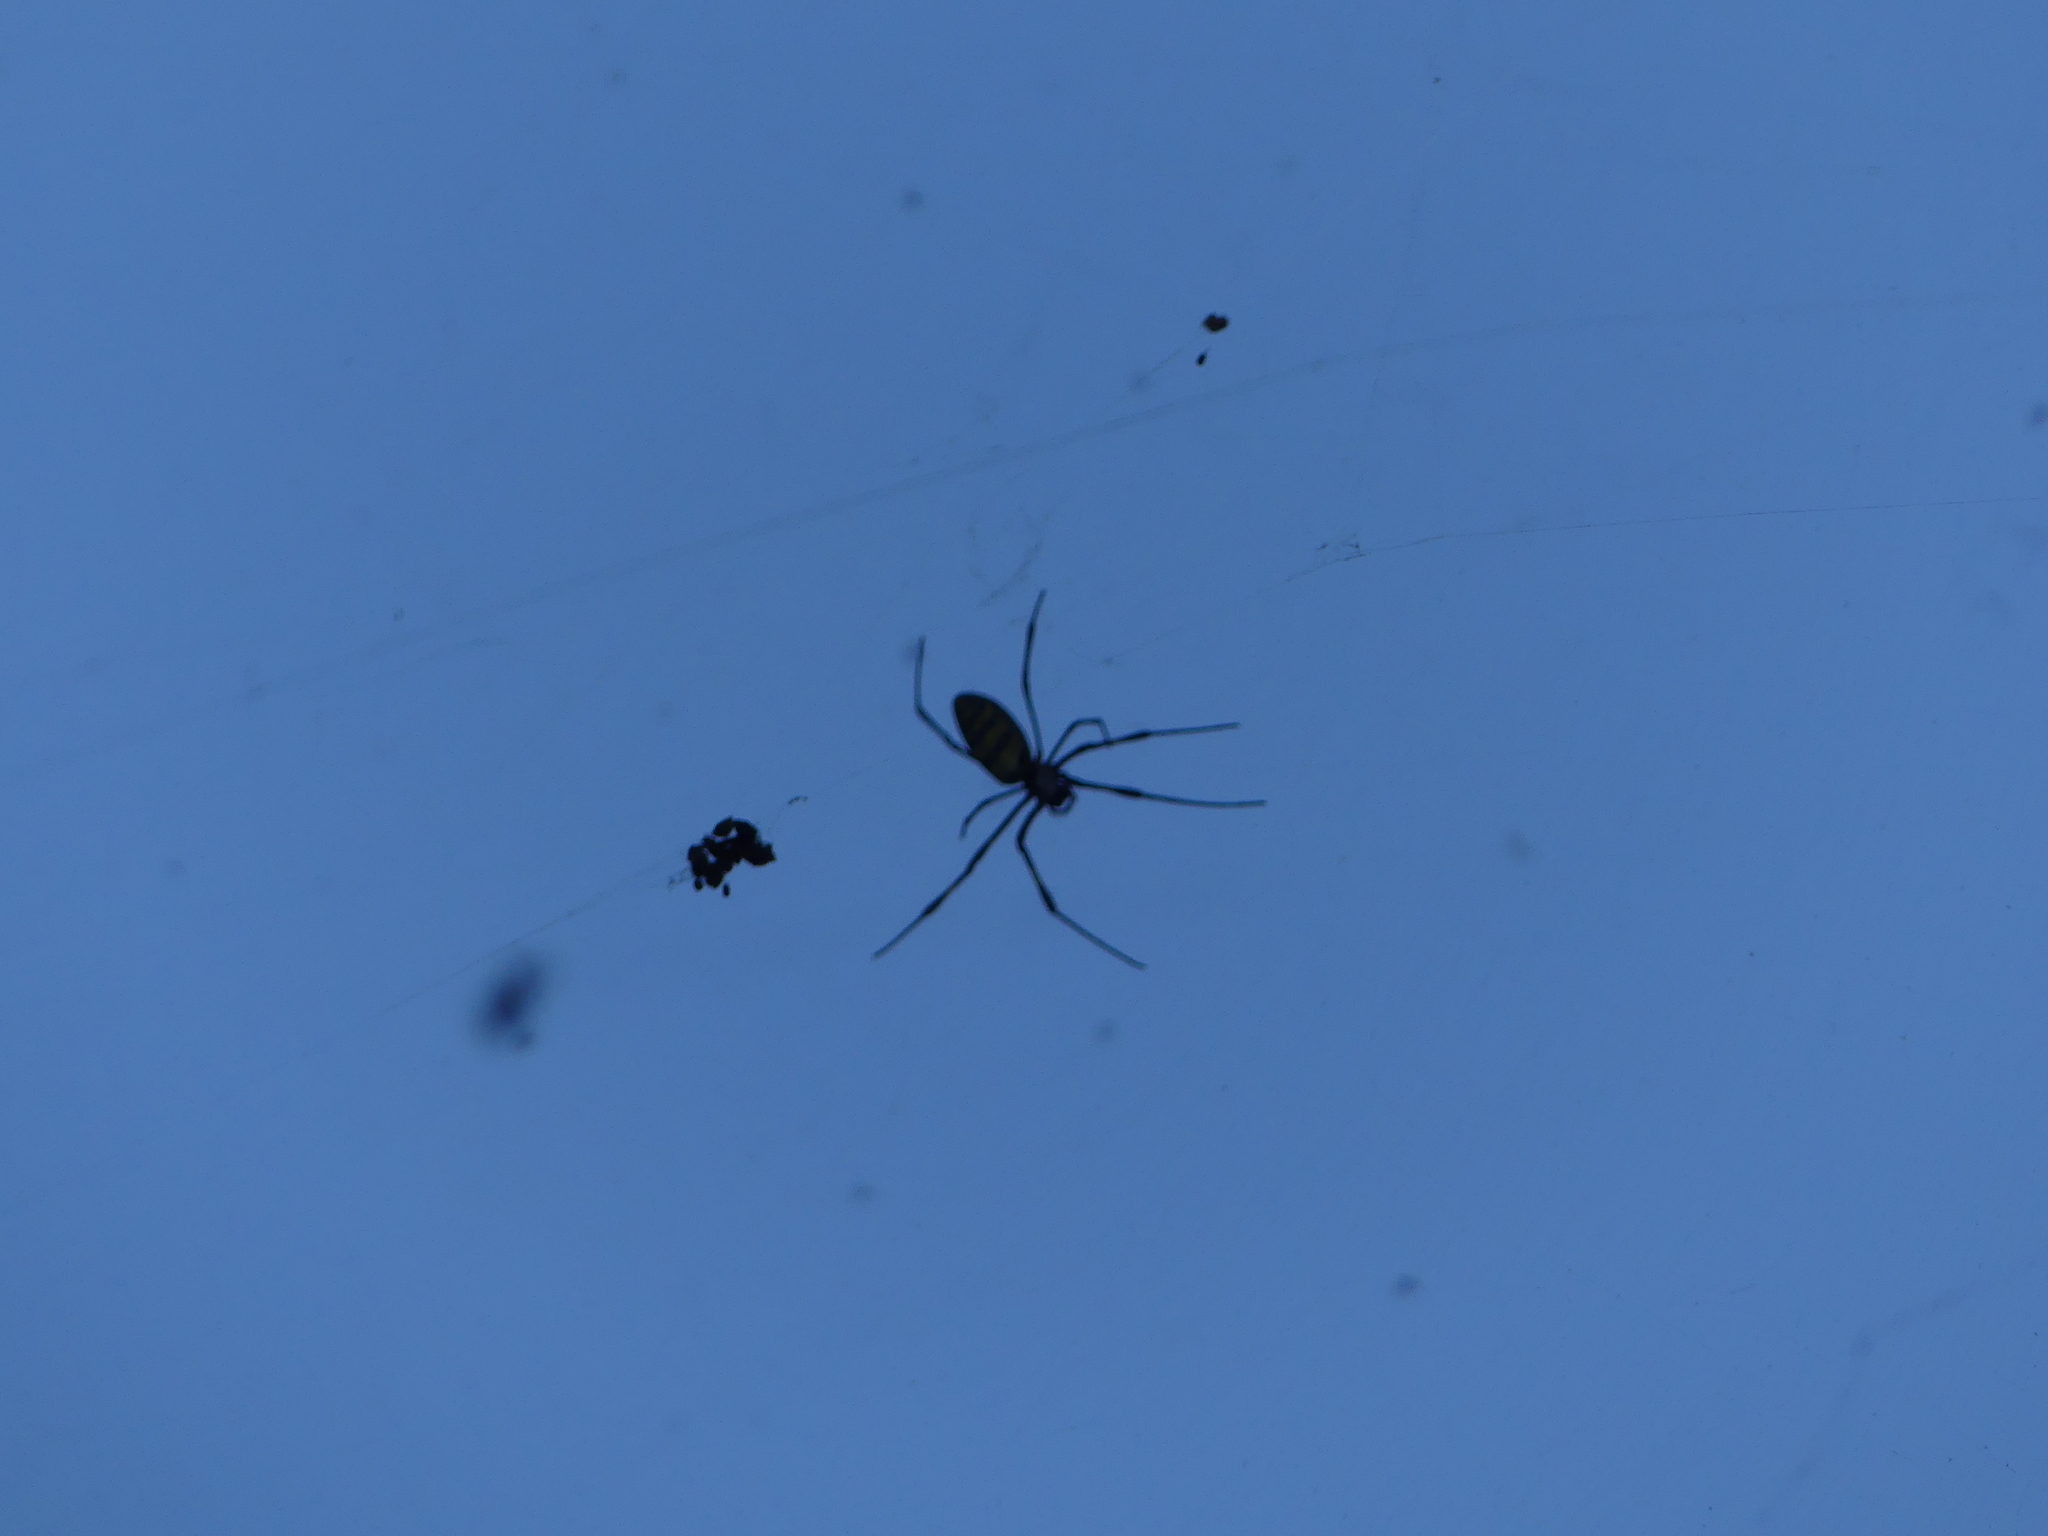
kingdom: Animalia
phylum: Arthropoda
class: Arachnida
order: Araneae
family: Araneidae
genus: Trichonephila
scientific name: Trichonephila clavata
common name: Jorō spider
